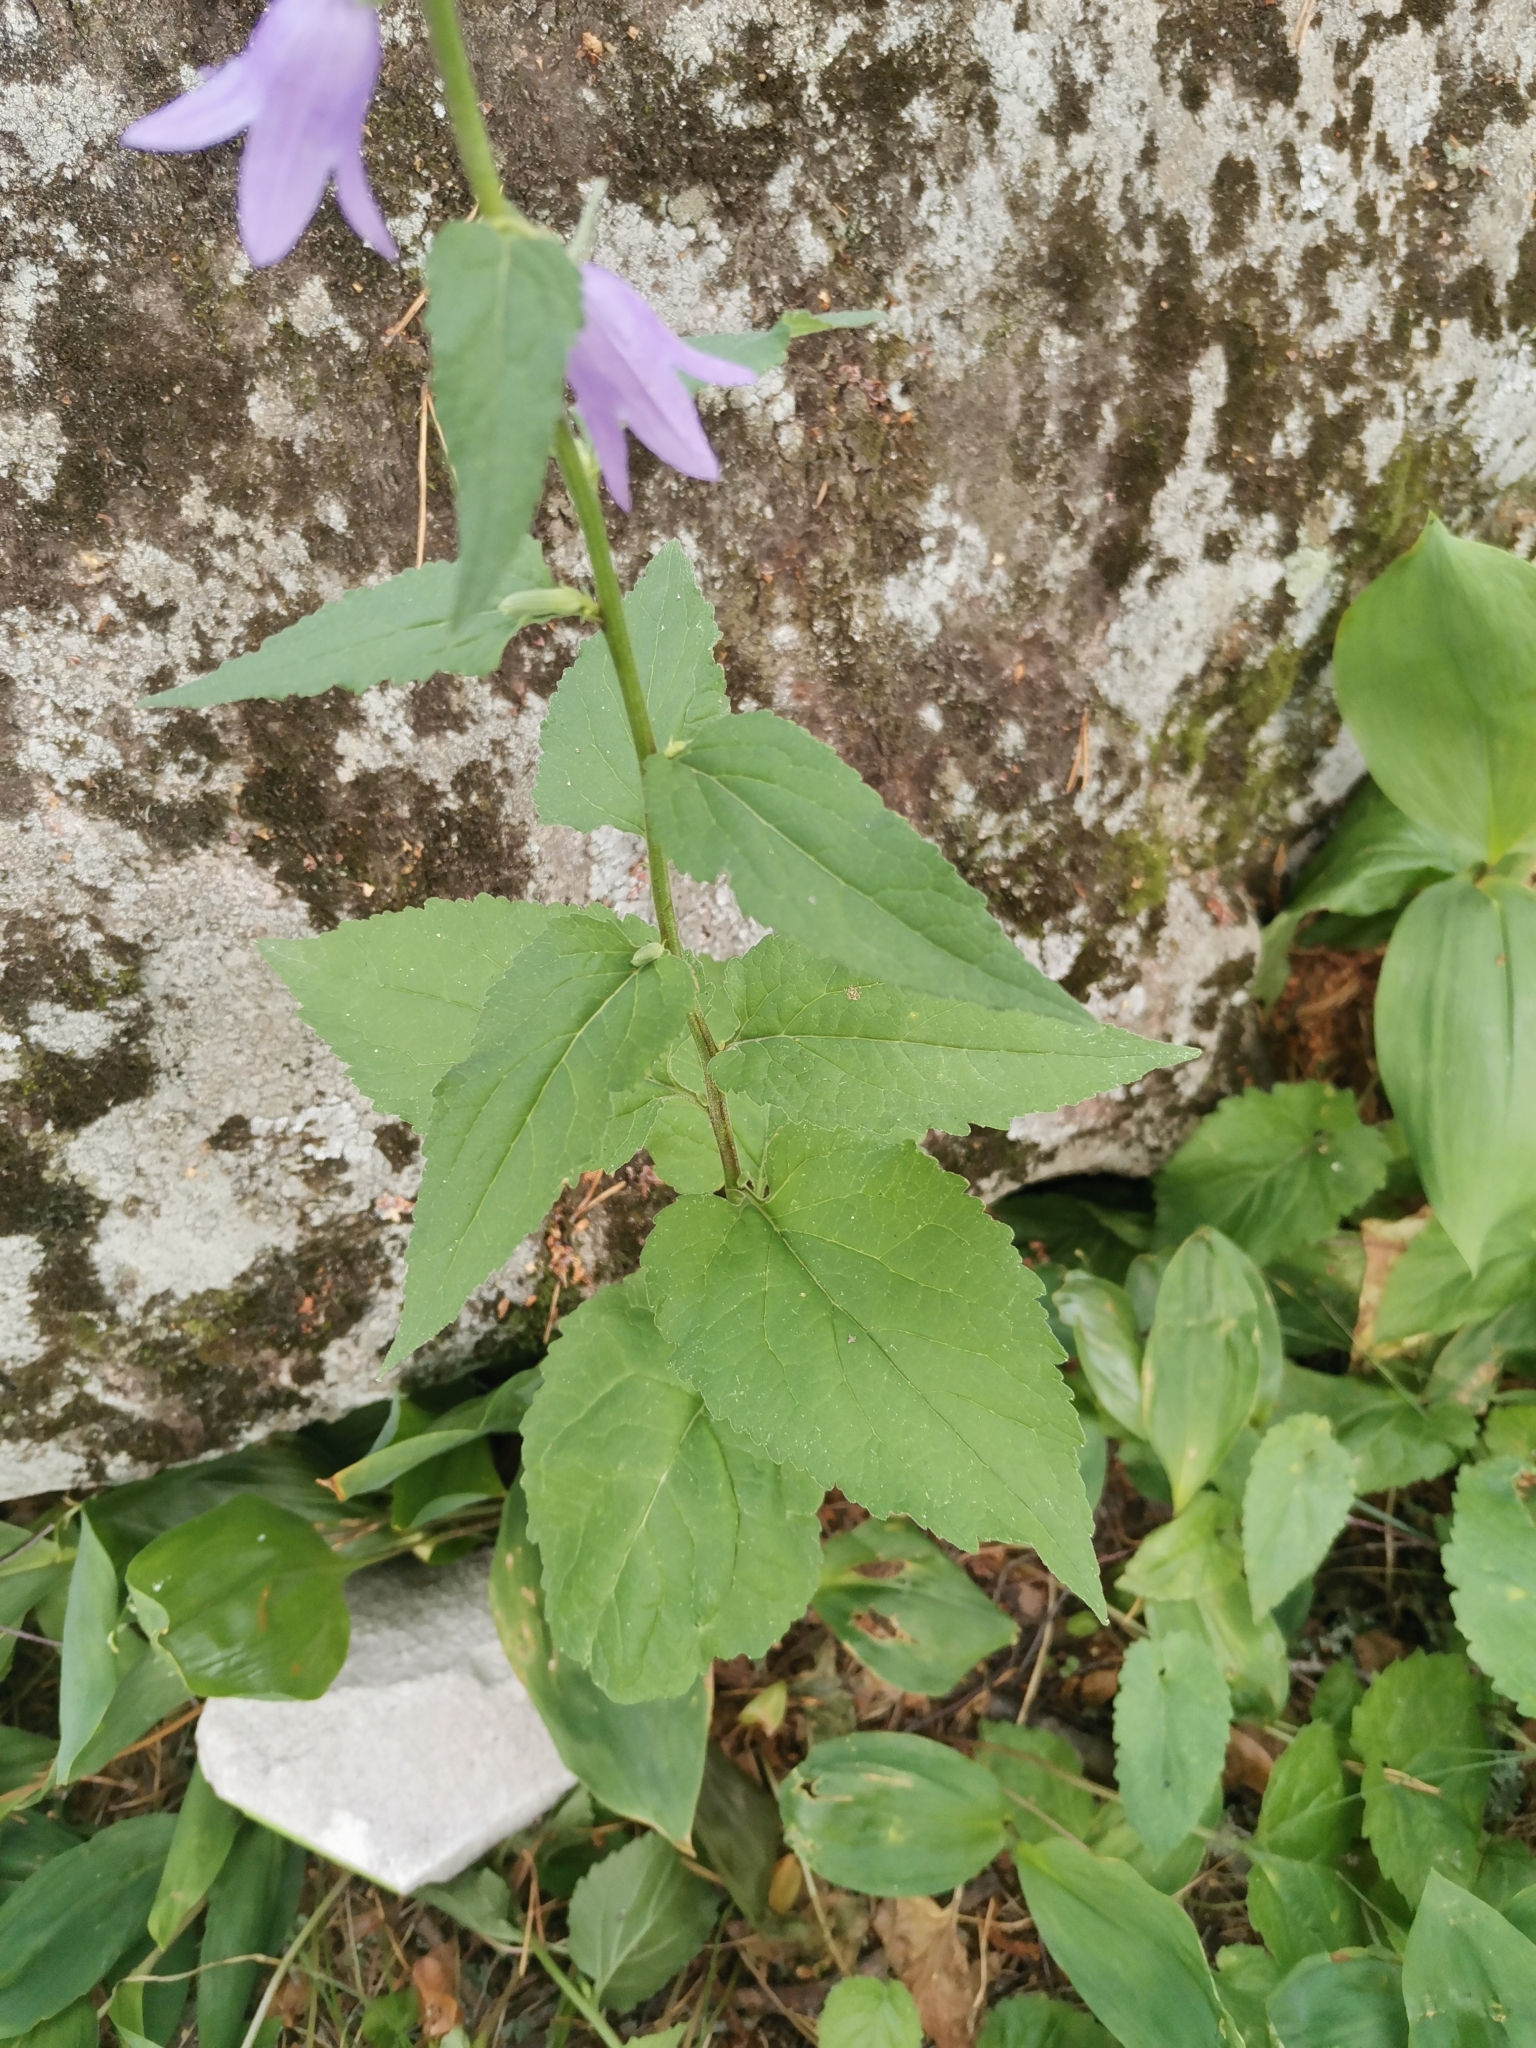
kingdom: Plantae
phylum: Tracheophyta
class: Magnoliopsida
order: Asterales
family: Campanulaceae
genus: Campanula
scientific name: Campanula rapunculoides
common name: Creeping bellflower
